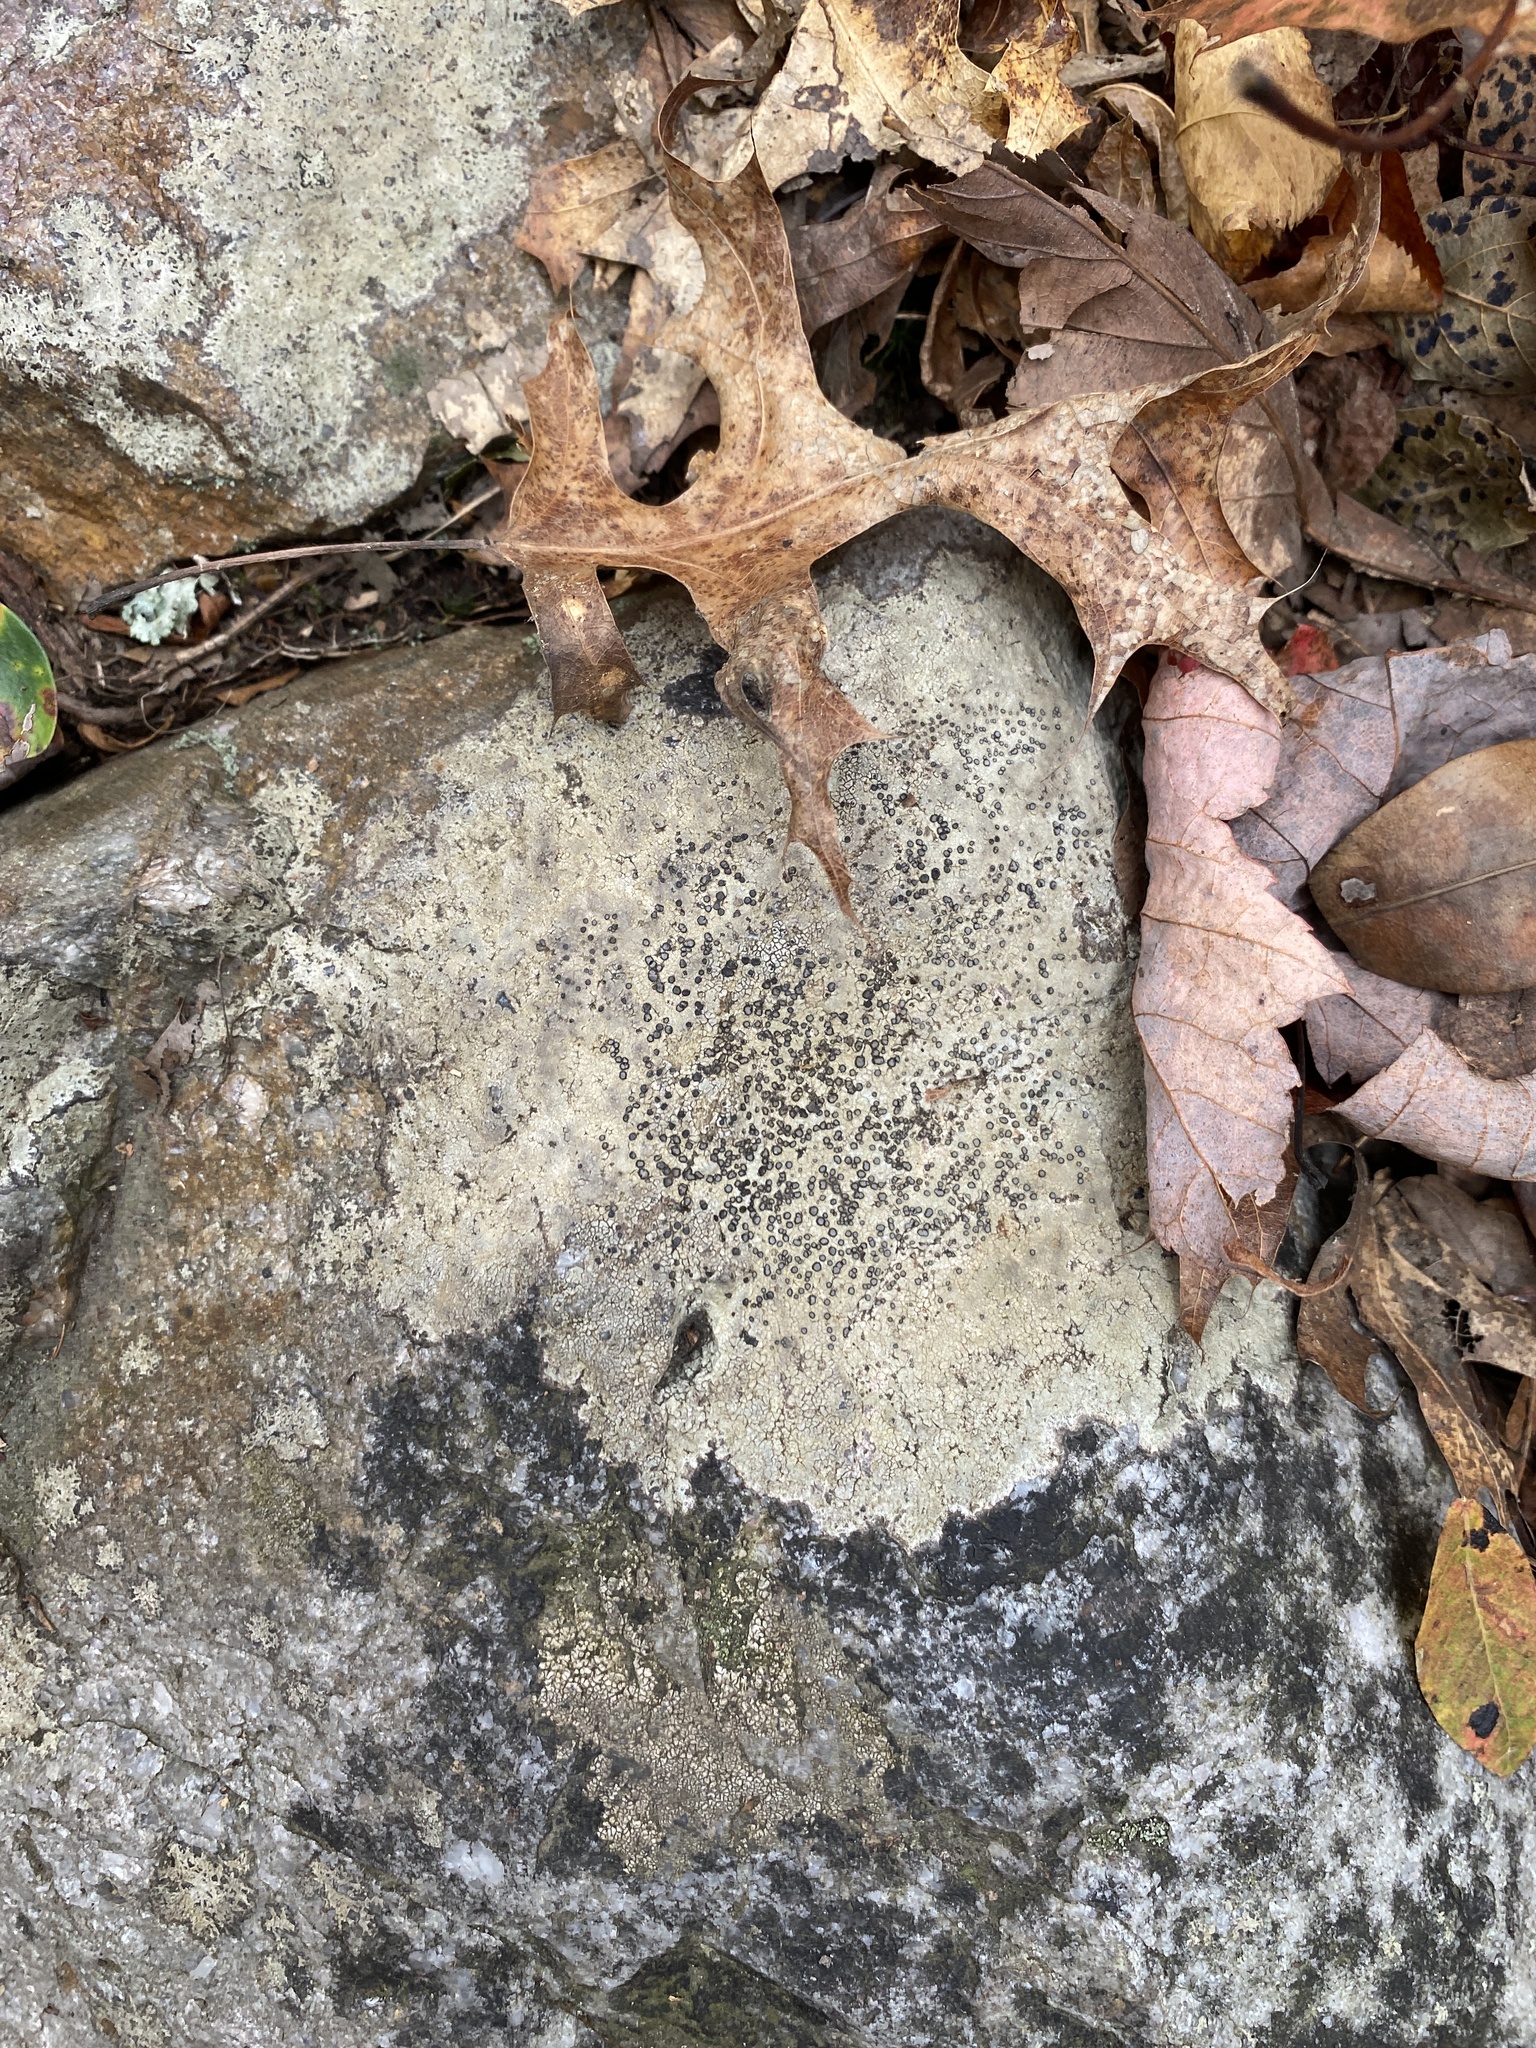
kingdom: Fungi
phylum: Ascomycota
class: Lecanoromycetes
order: Lecideales
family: Lecideaceae
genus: Porpidia
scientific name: Porpidia albocaerulescens
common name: Smokey-eyed boulder lichen
